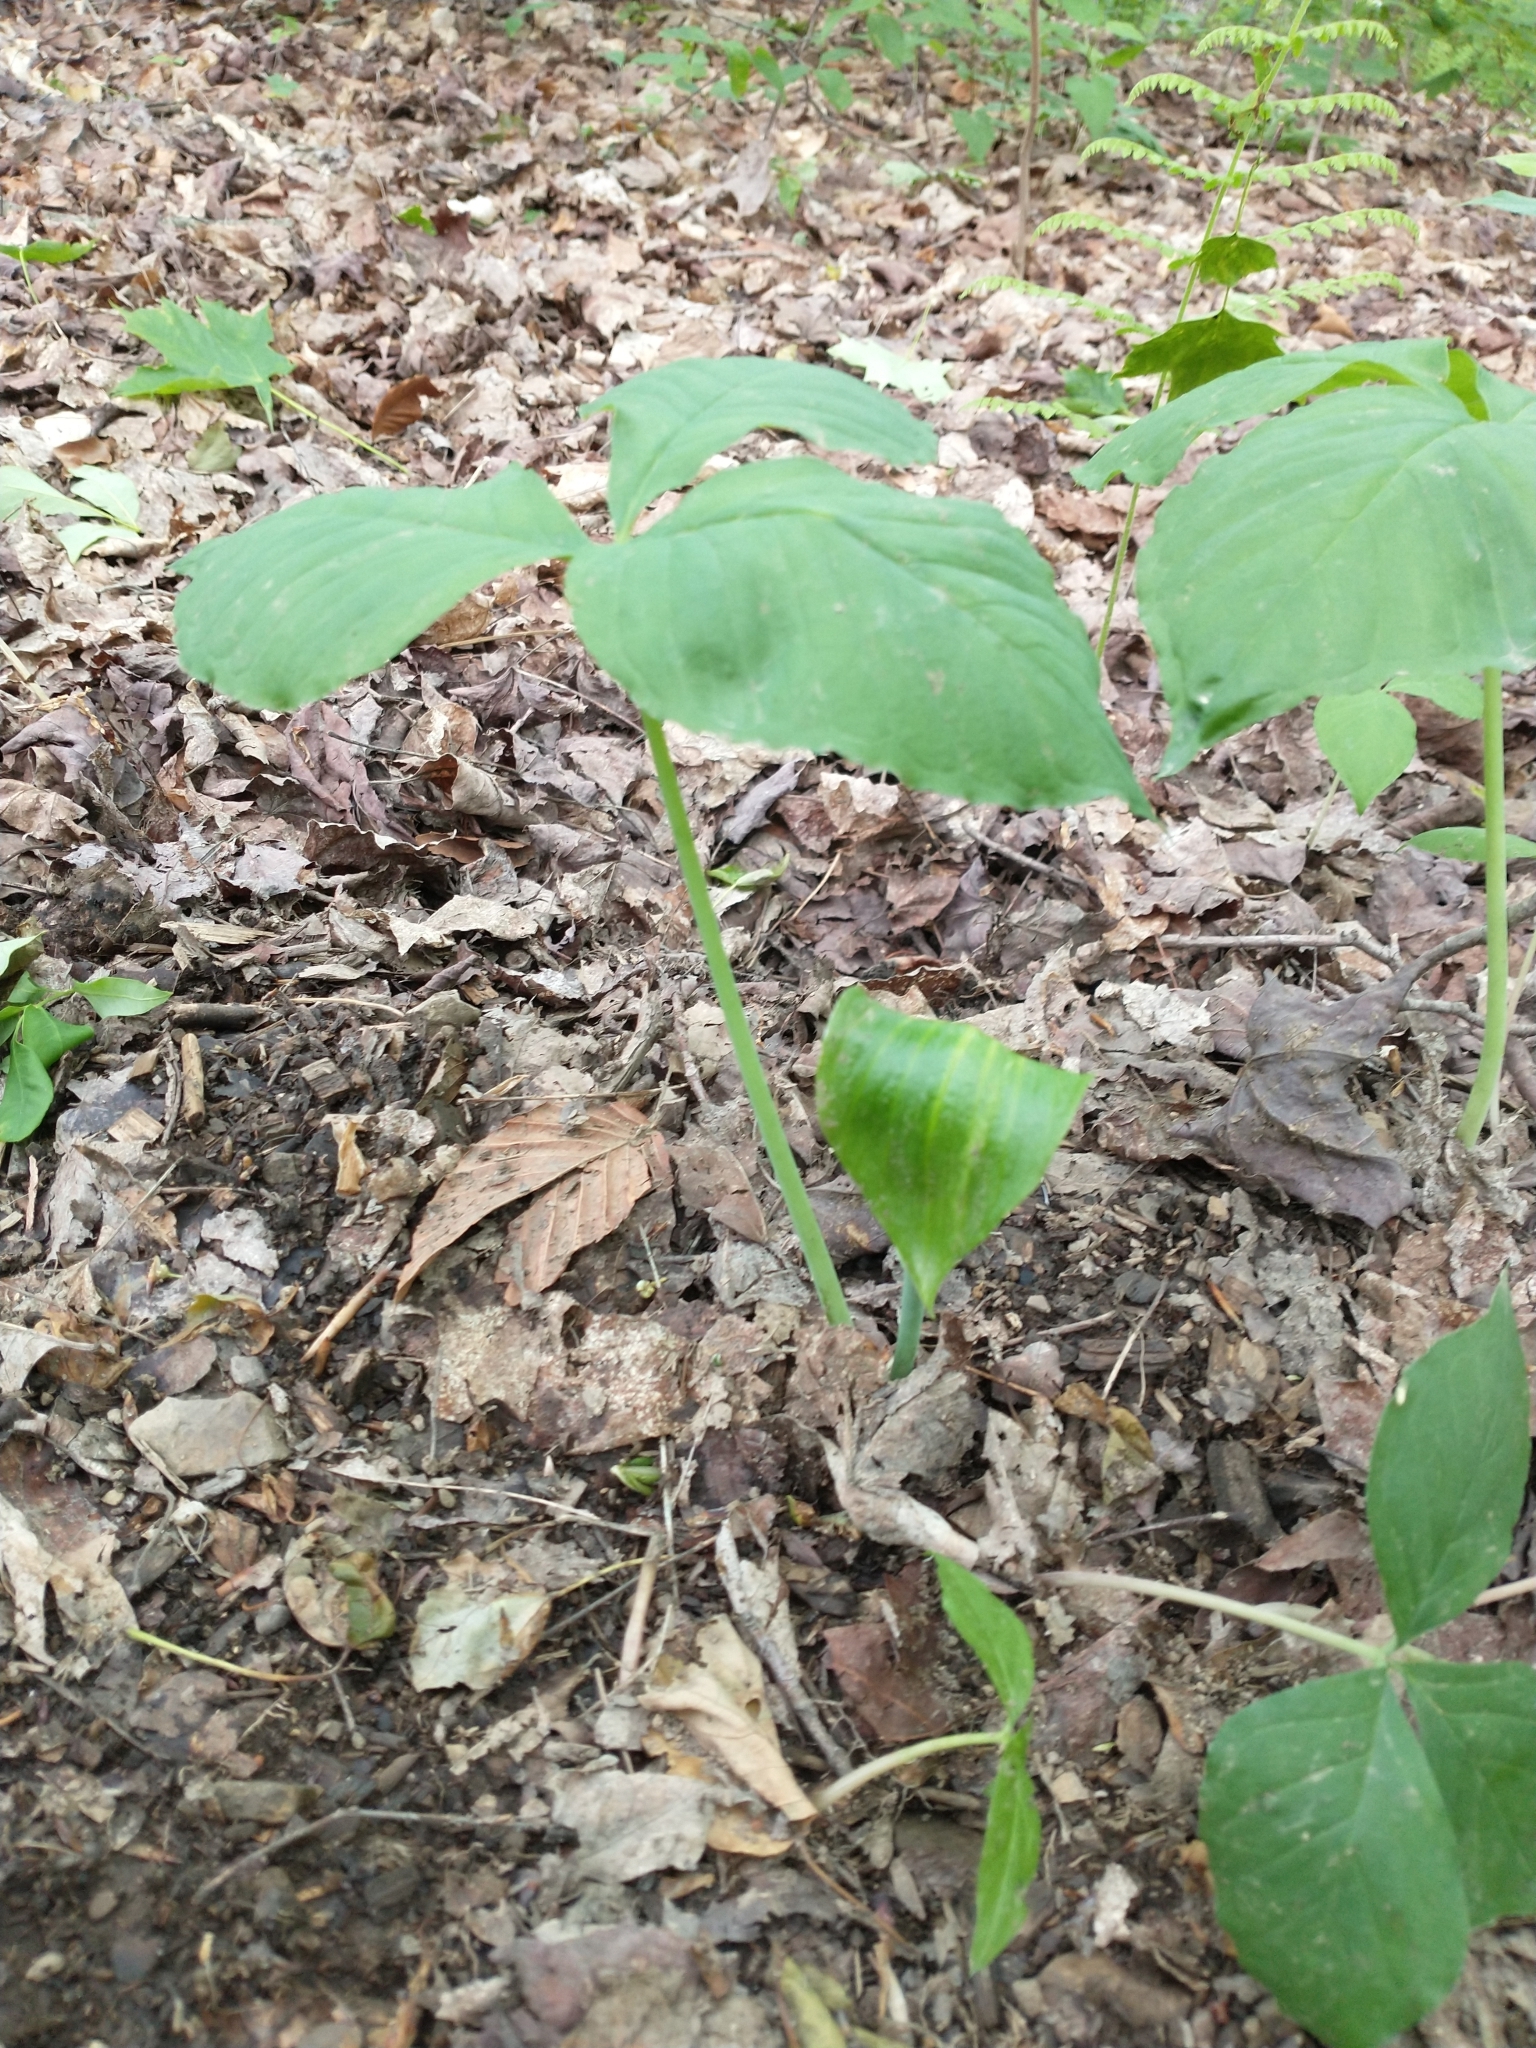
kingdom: Plantae
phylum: Tracheophyta
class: Liliopsida
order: Alismatales
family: Araceae
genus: Arisaema
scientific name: Arisaema triphyllum
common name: Jack-in-the-pulpit
